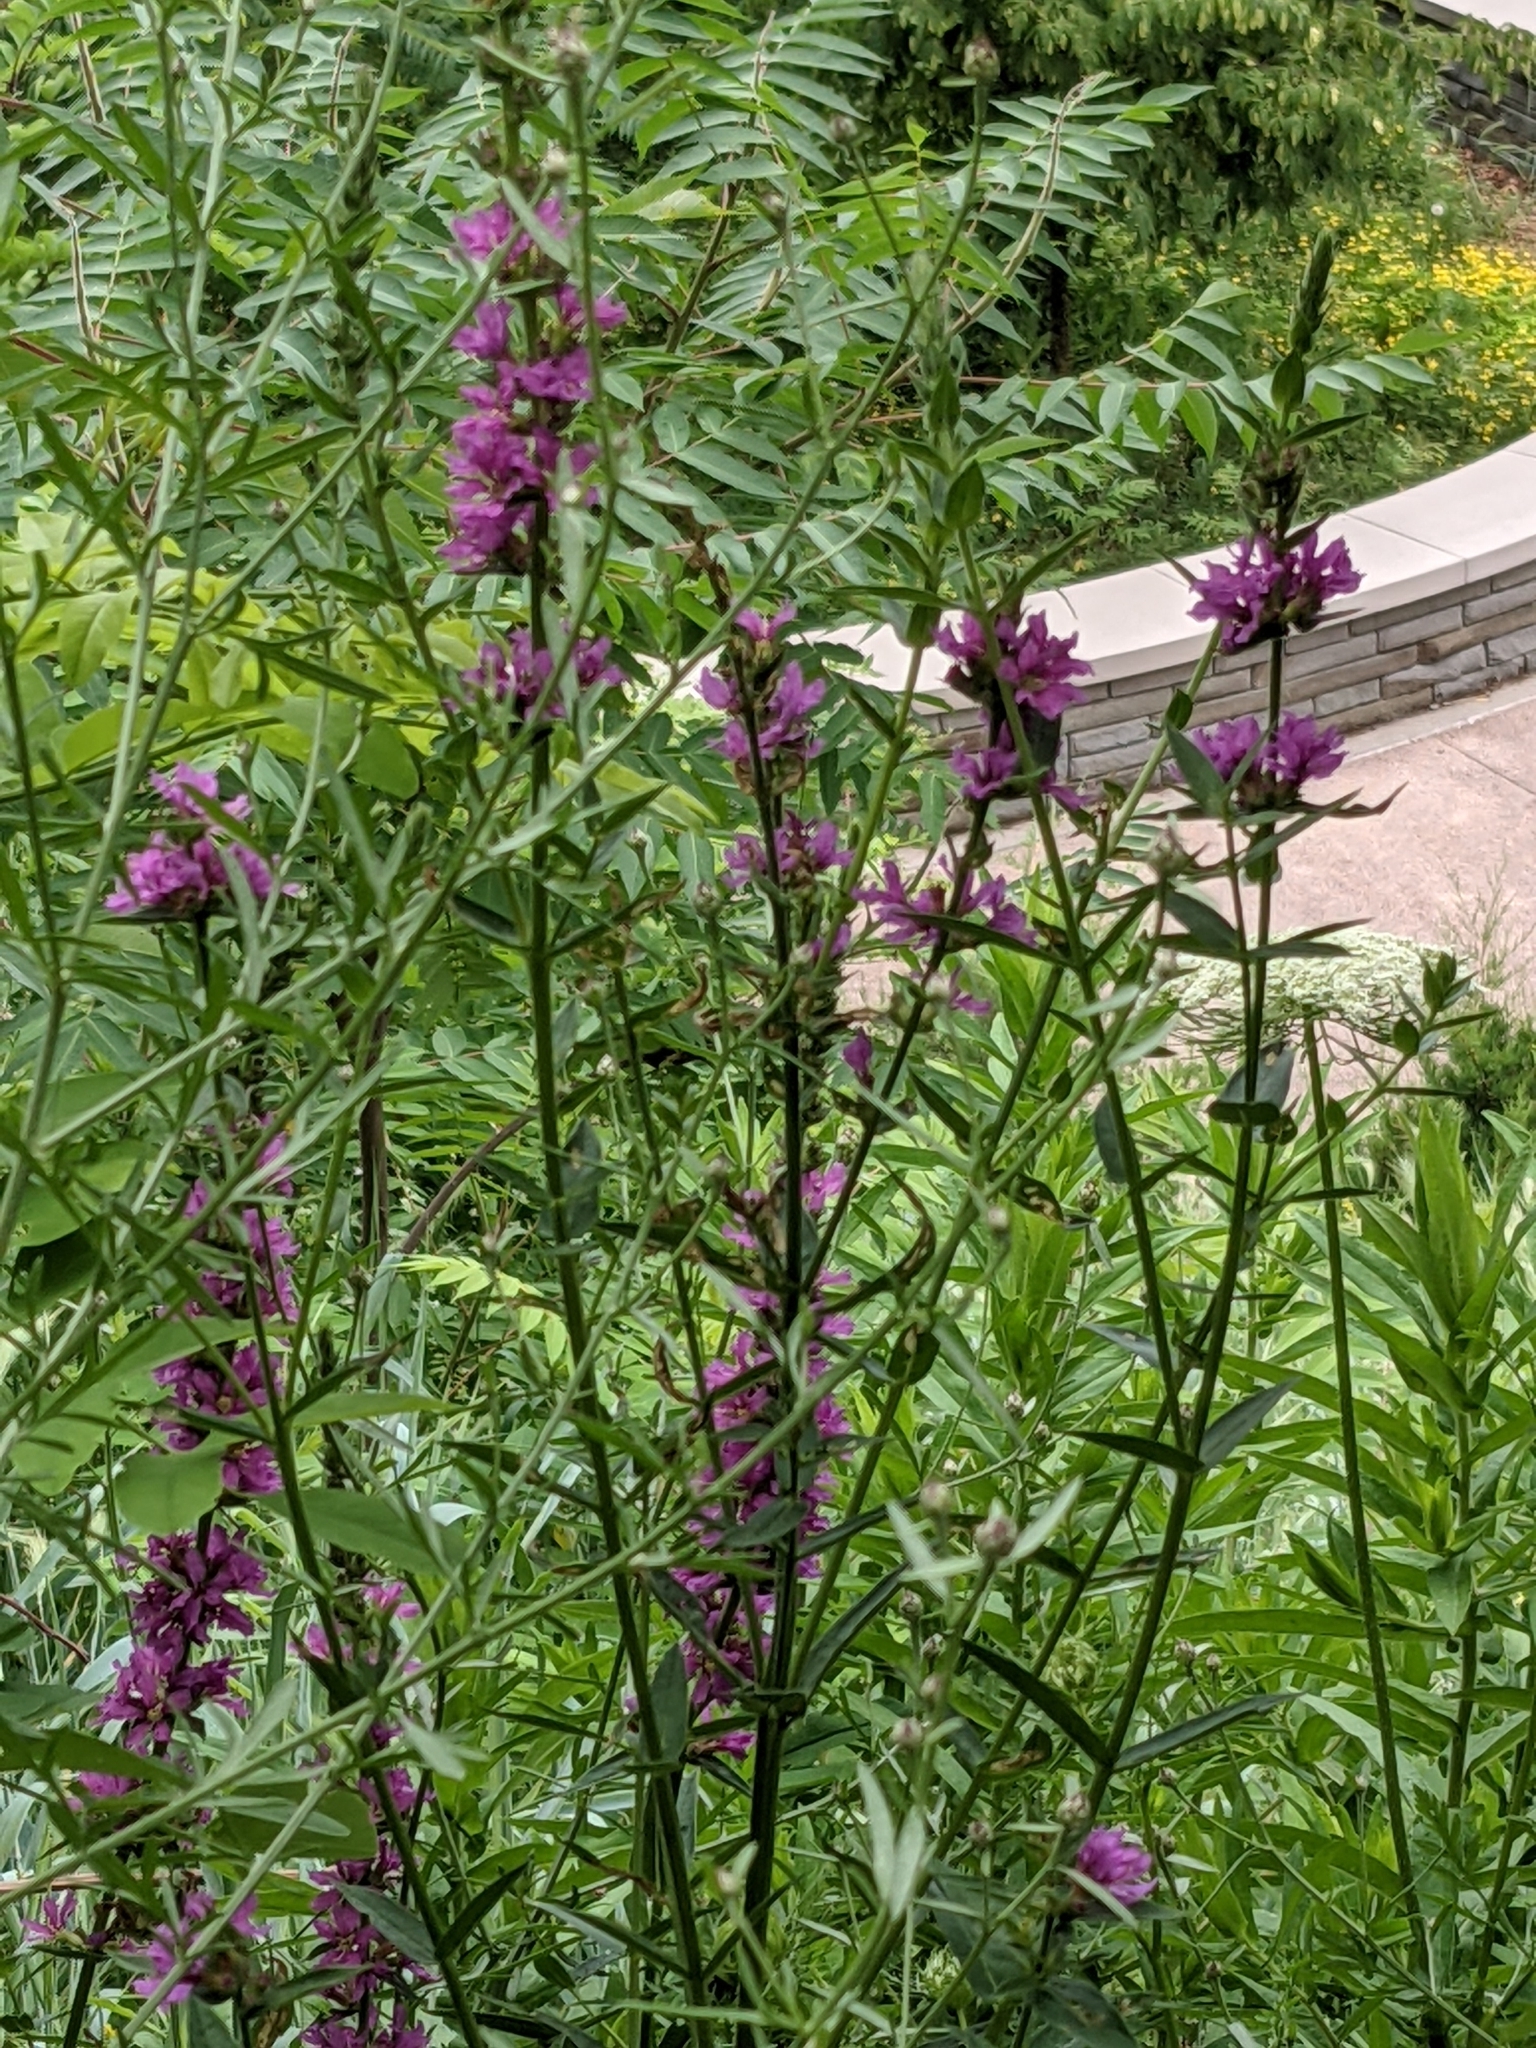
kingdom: Plantae
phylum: Tracheophyta
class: Magnoliopsida
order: Myrtales
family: Lythraceae
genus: Lythrum
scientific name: Lythrum salicaria
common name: Purple loosestrife
